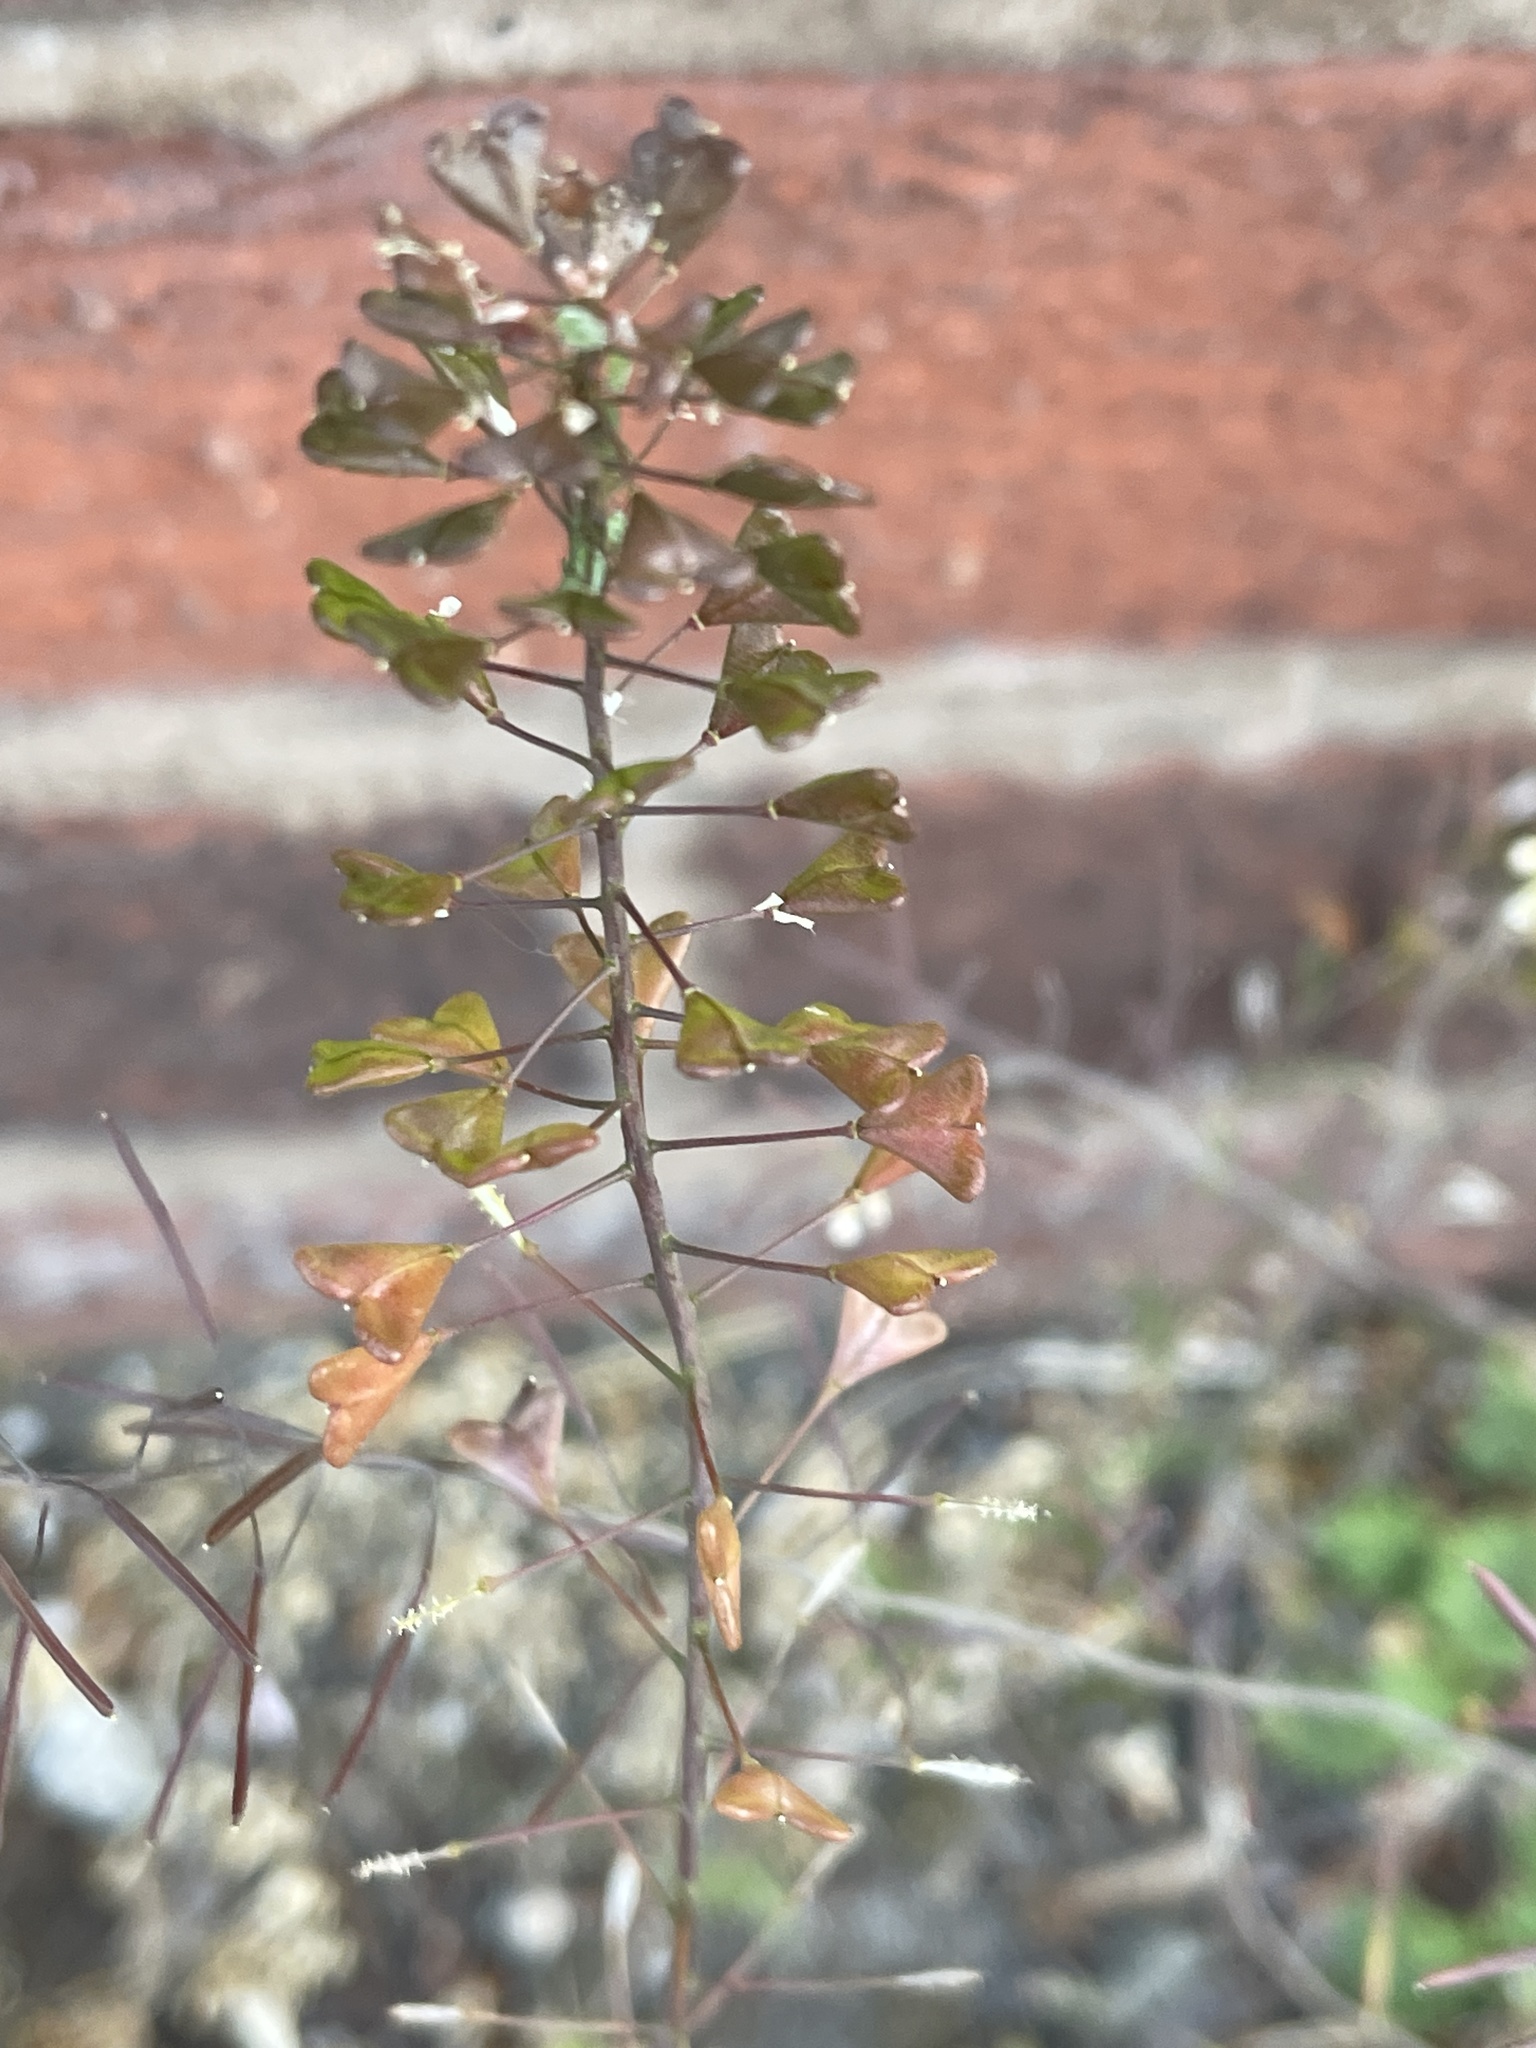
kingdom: Plantae
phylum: Tracheophyta
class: Magnoliopsida
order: Brassicales
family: Brassicaceae
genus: Capsella
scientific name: Capsella bursa-pastoris
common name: Shepherd's purse
